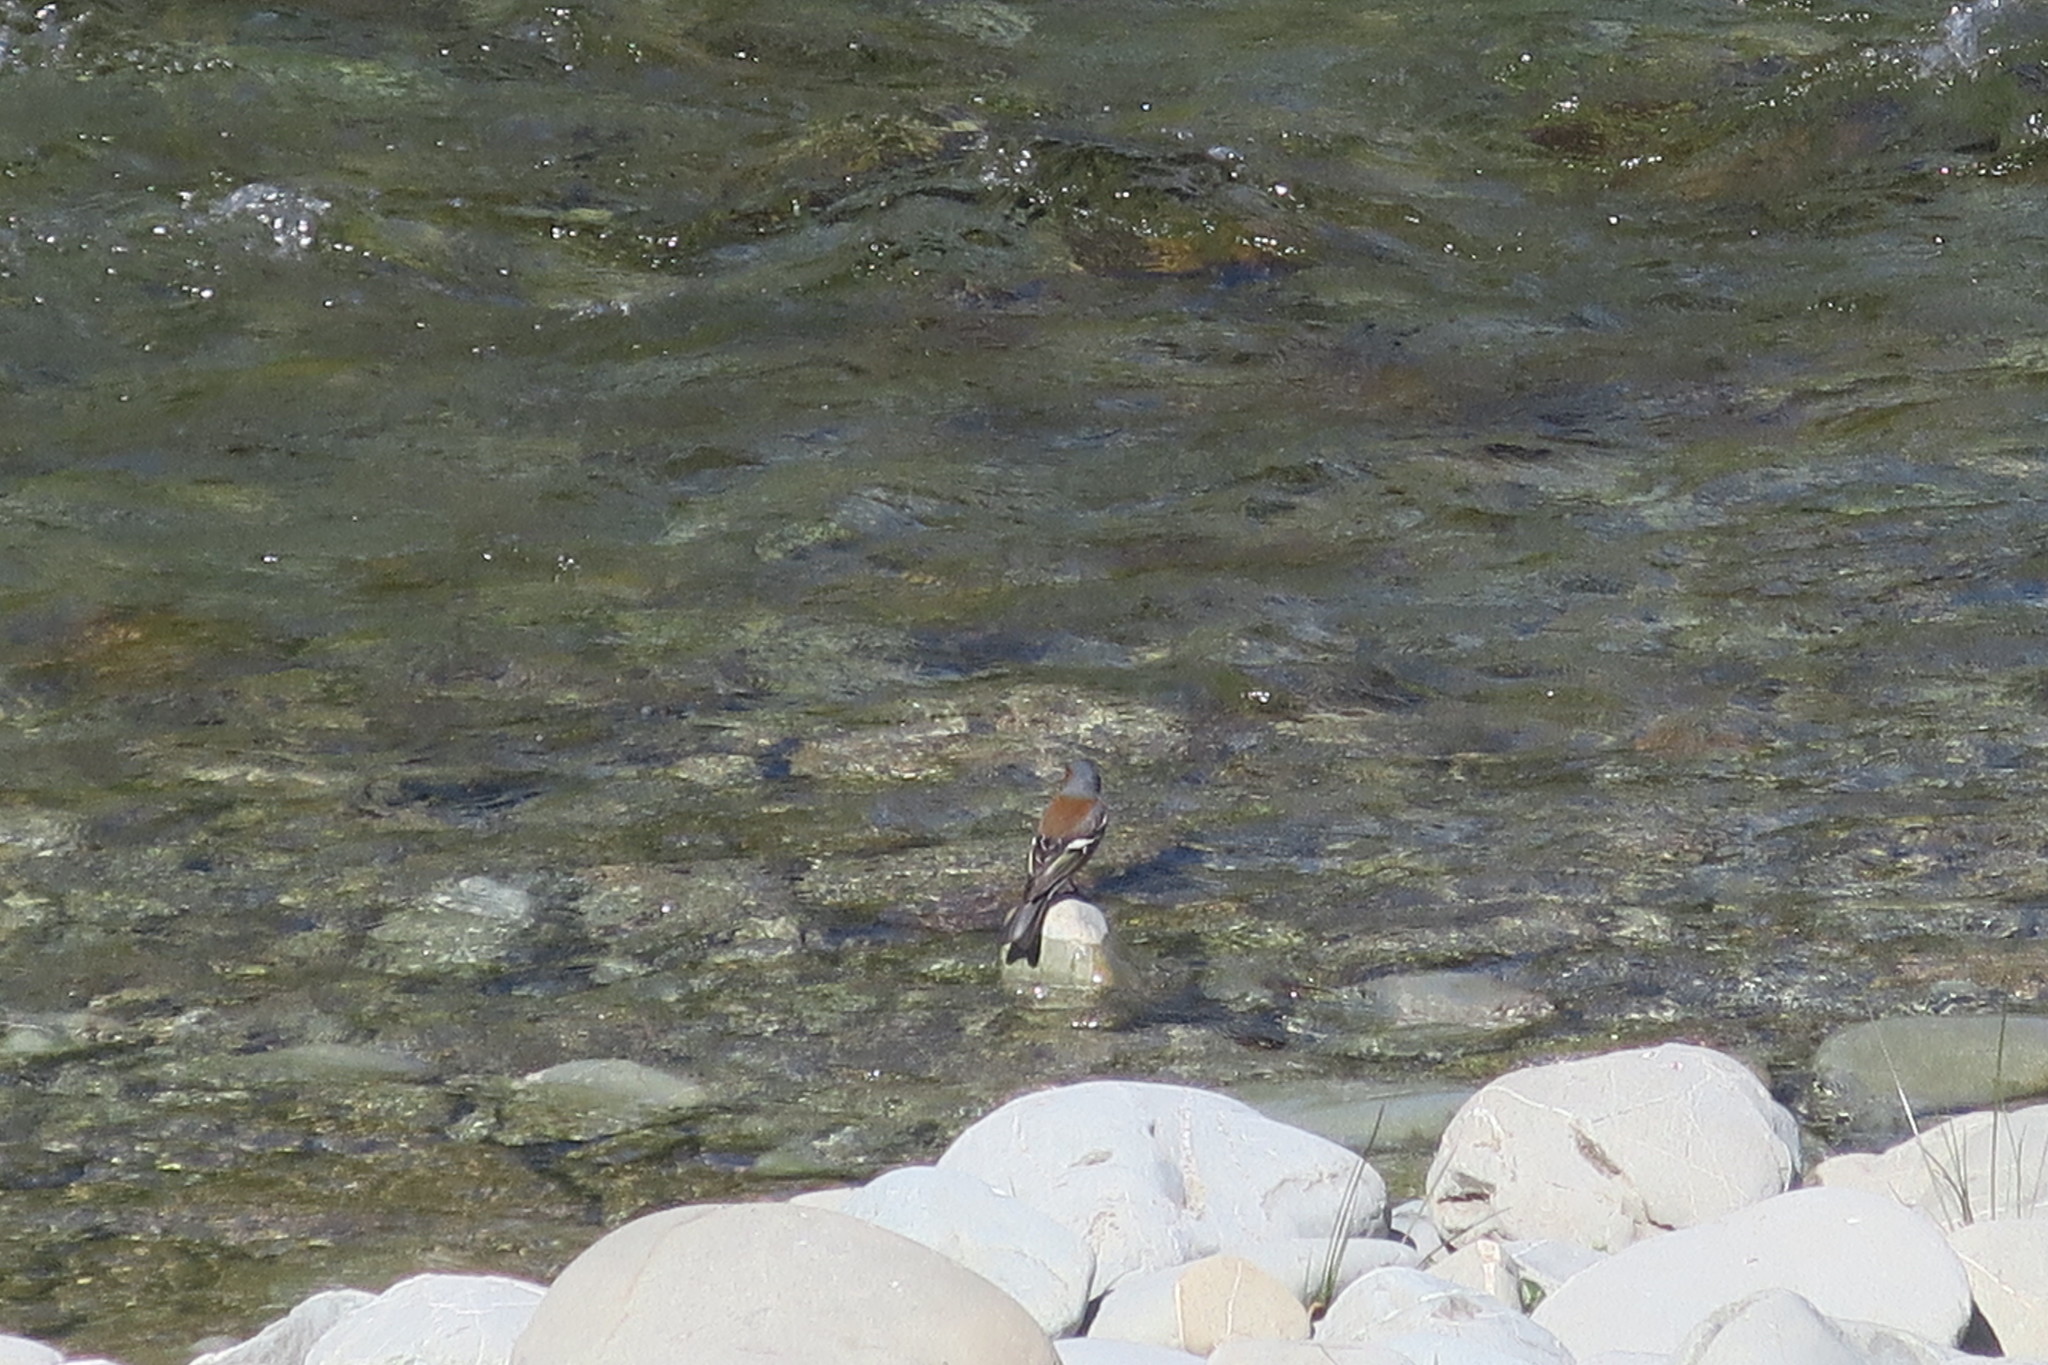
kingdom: Animalia
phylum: Chordata
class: Aves
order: Passeriformes
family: Fringillidae
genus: Fringilla
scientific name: Fringilla coelebs
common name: Common chaffinch
